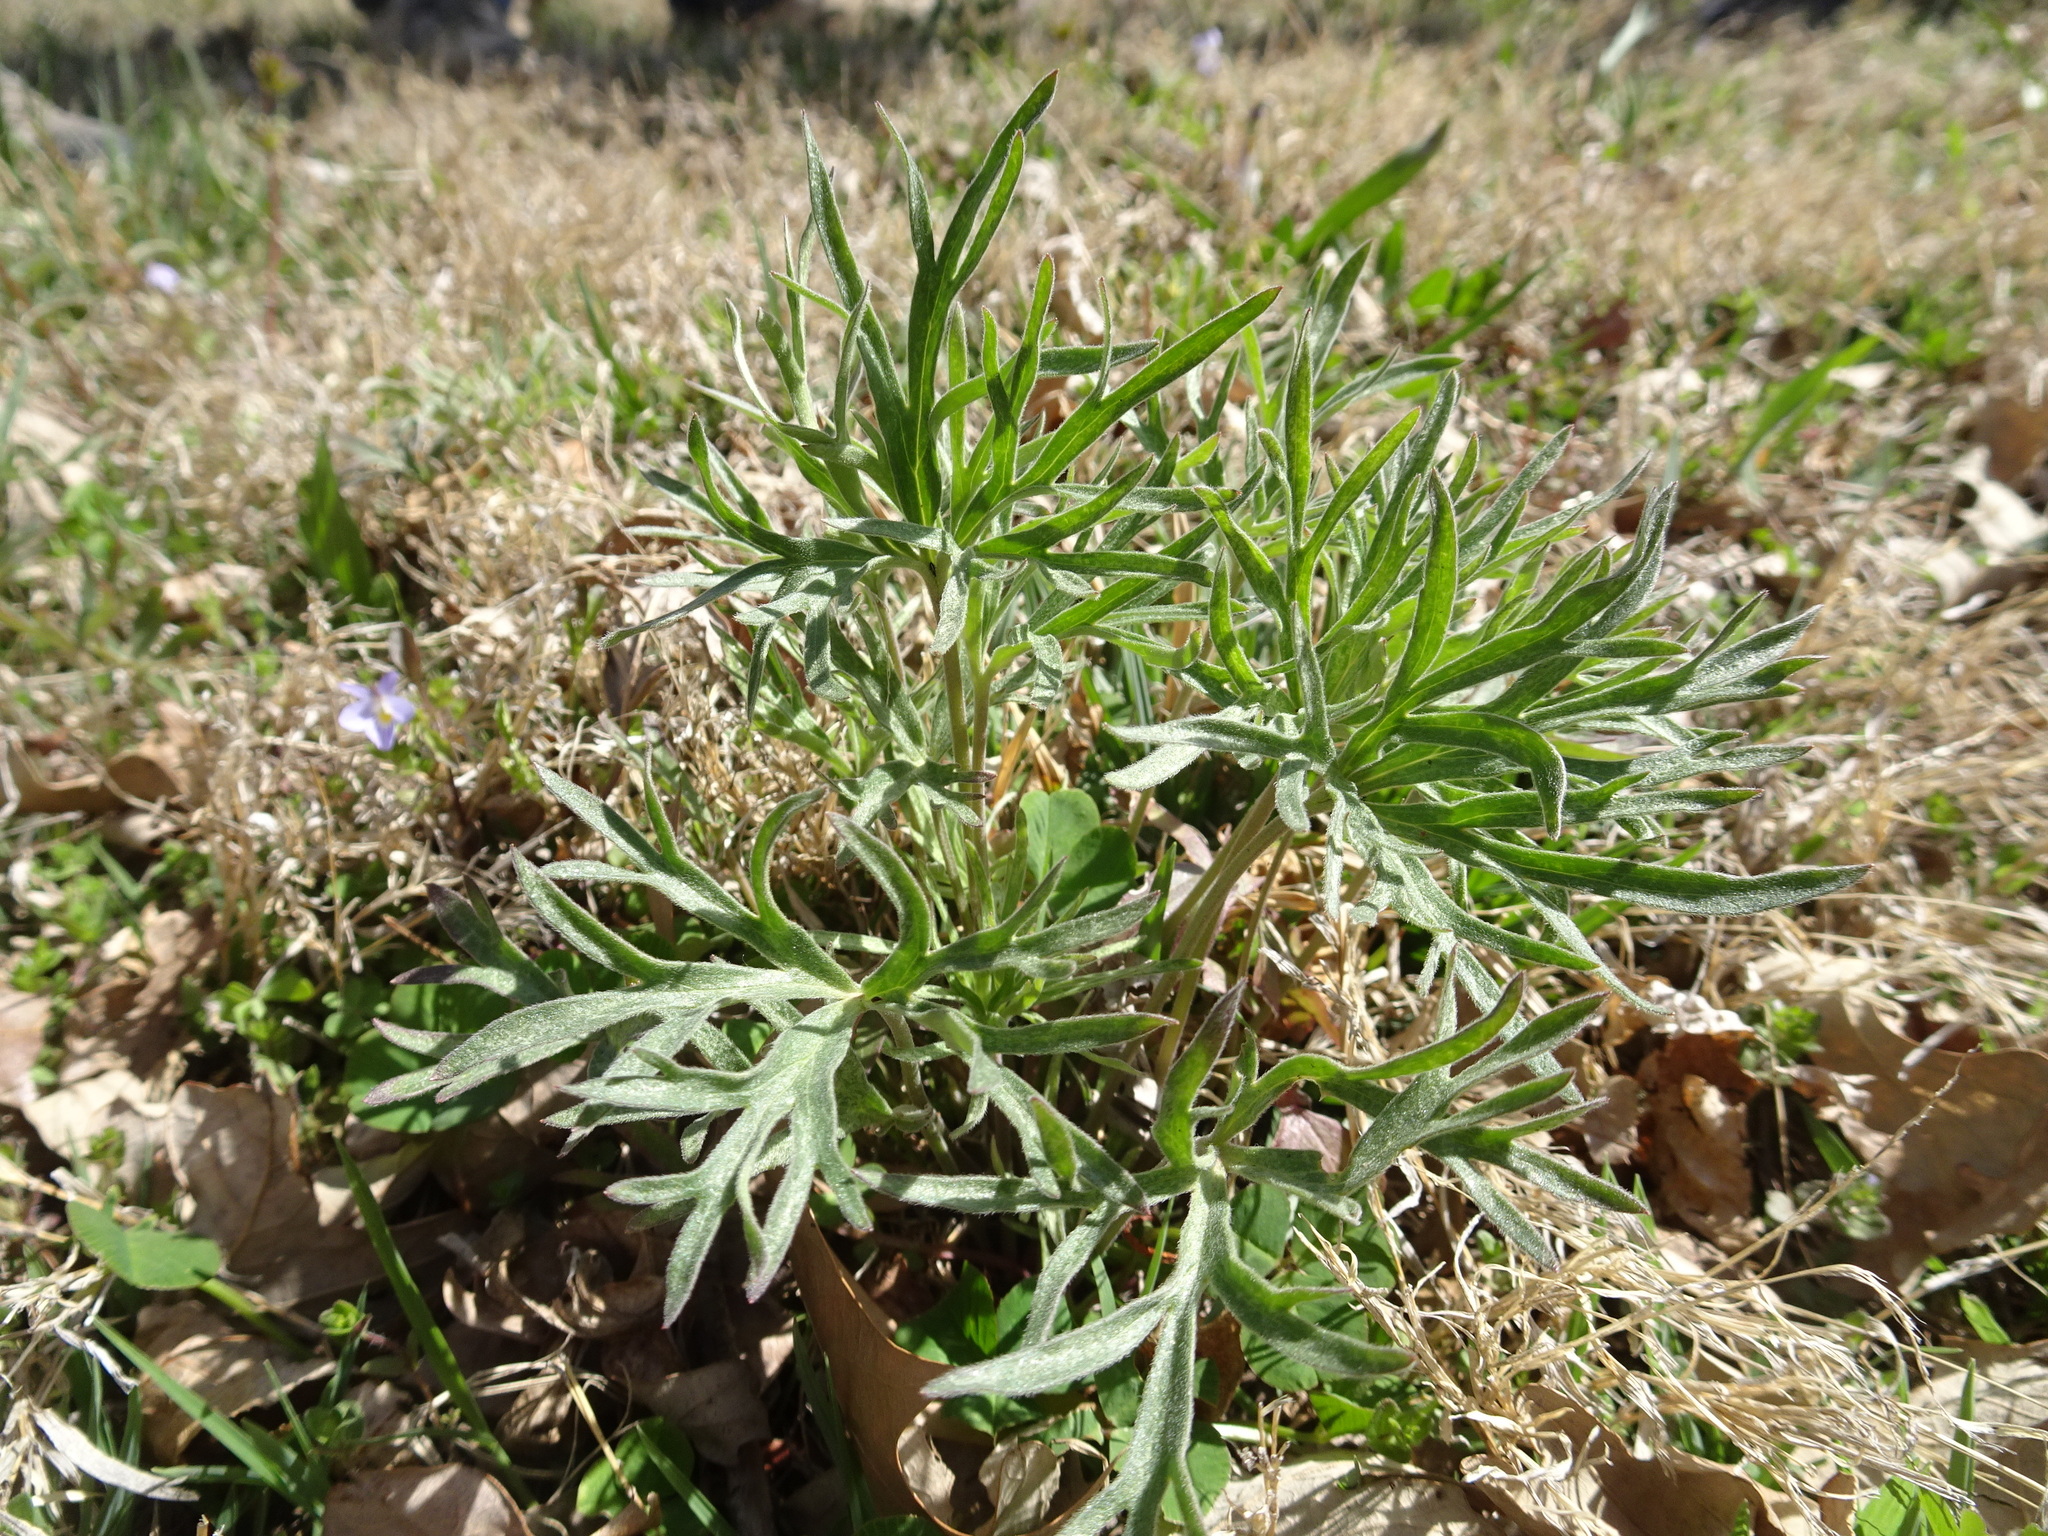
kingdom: Plantae
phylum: Tracheophyta
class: Magnoliopsida
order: Ranunculales
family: Ranunculaceae
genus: Delphinium
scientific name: Delphinium carolinianum
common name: Carolina larkspur
